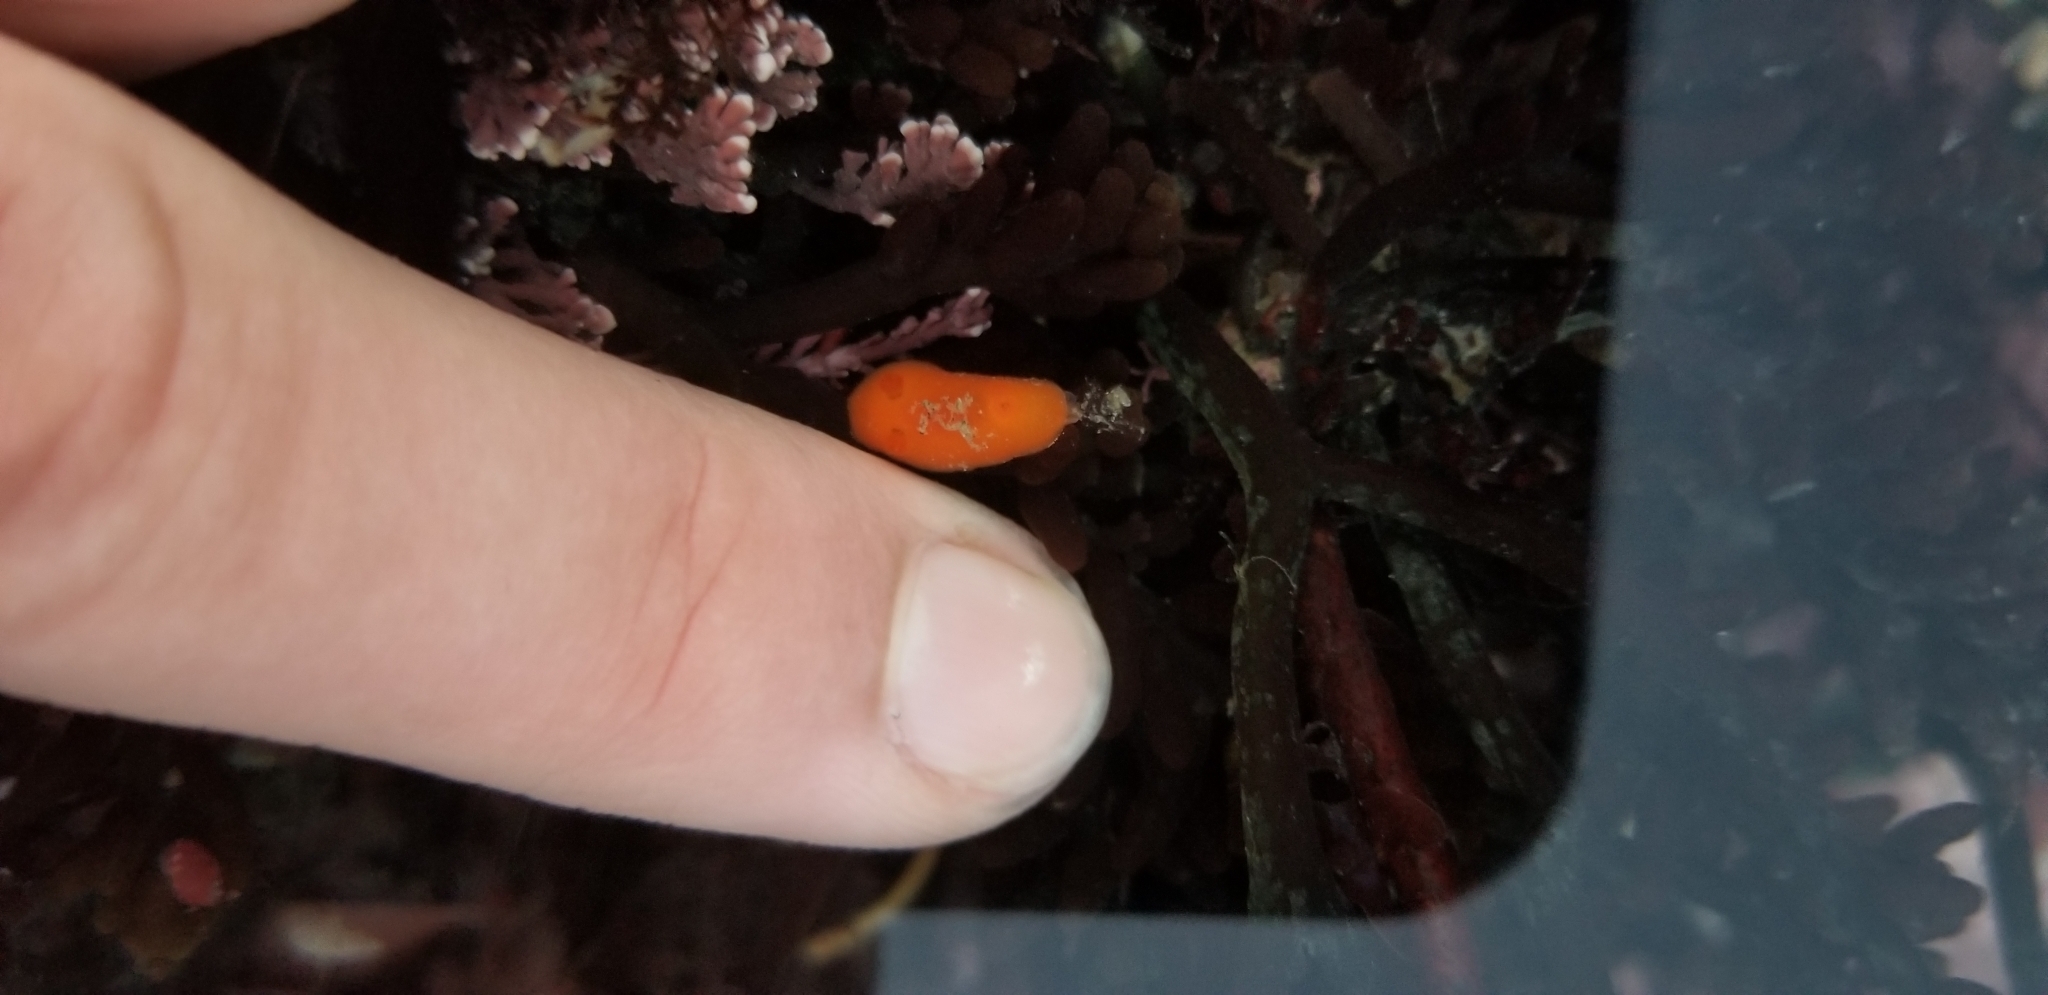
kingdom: Animalia
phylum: Mollusca
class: Gastropoda
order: Nudibranchia
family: Discodorididae
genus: Rostanga
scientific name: Rostanga pulchra
